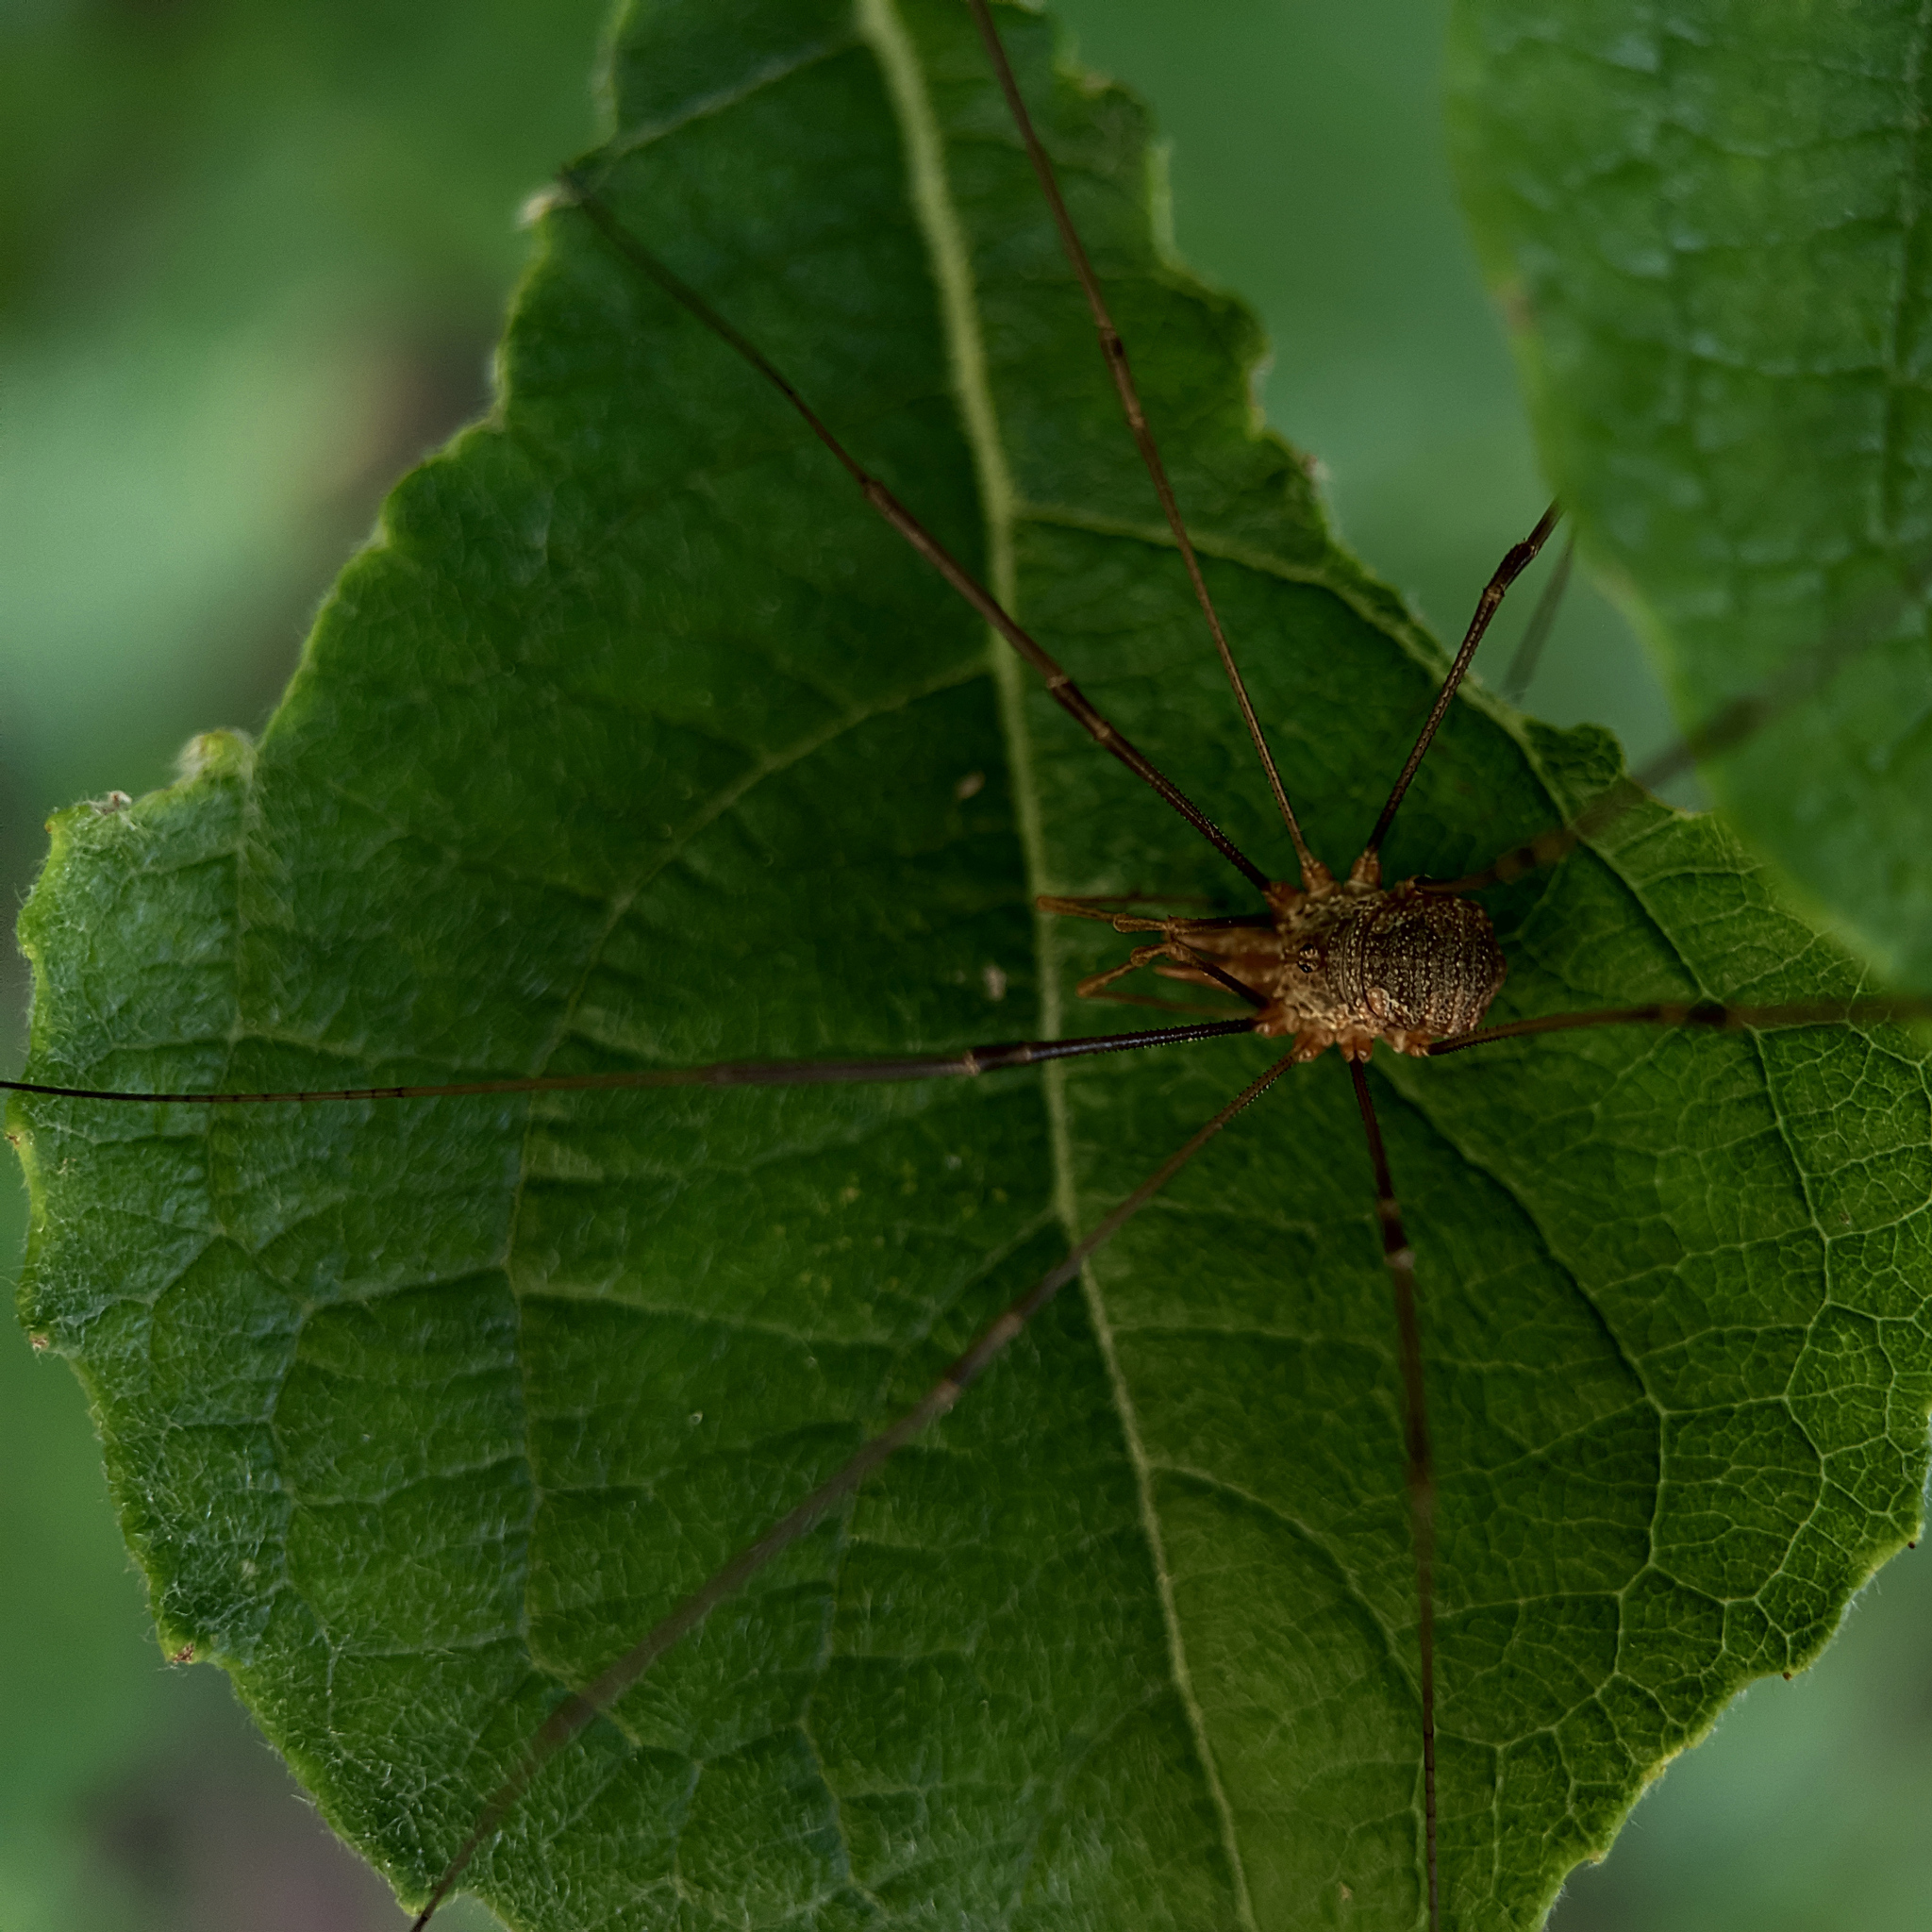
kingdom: Animalia
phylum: Arthropoda
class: Arachnida
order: Opiliones
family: Phalangiidae
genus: Phalangium
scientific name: Phalangium opilio
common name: Daddy longleg
